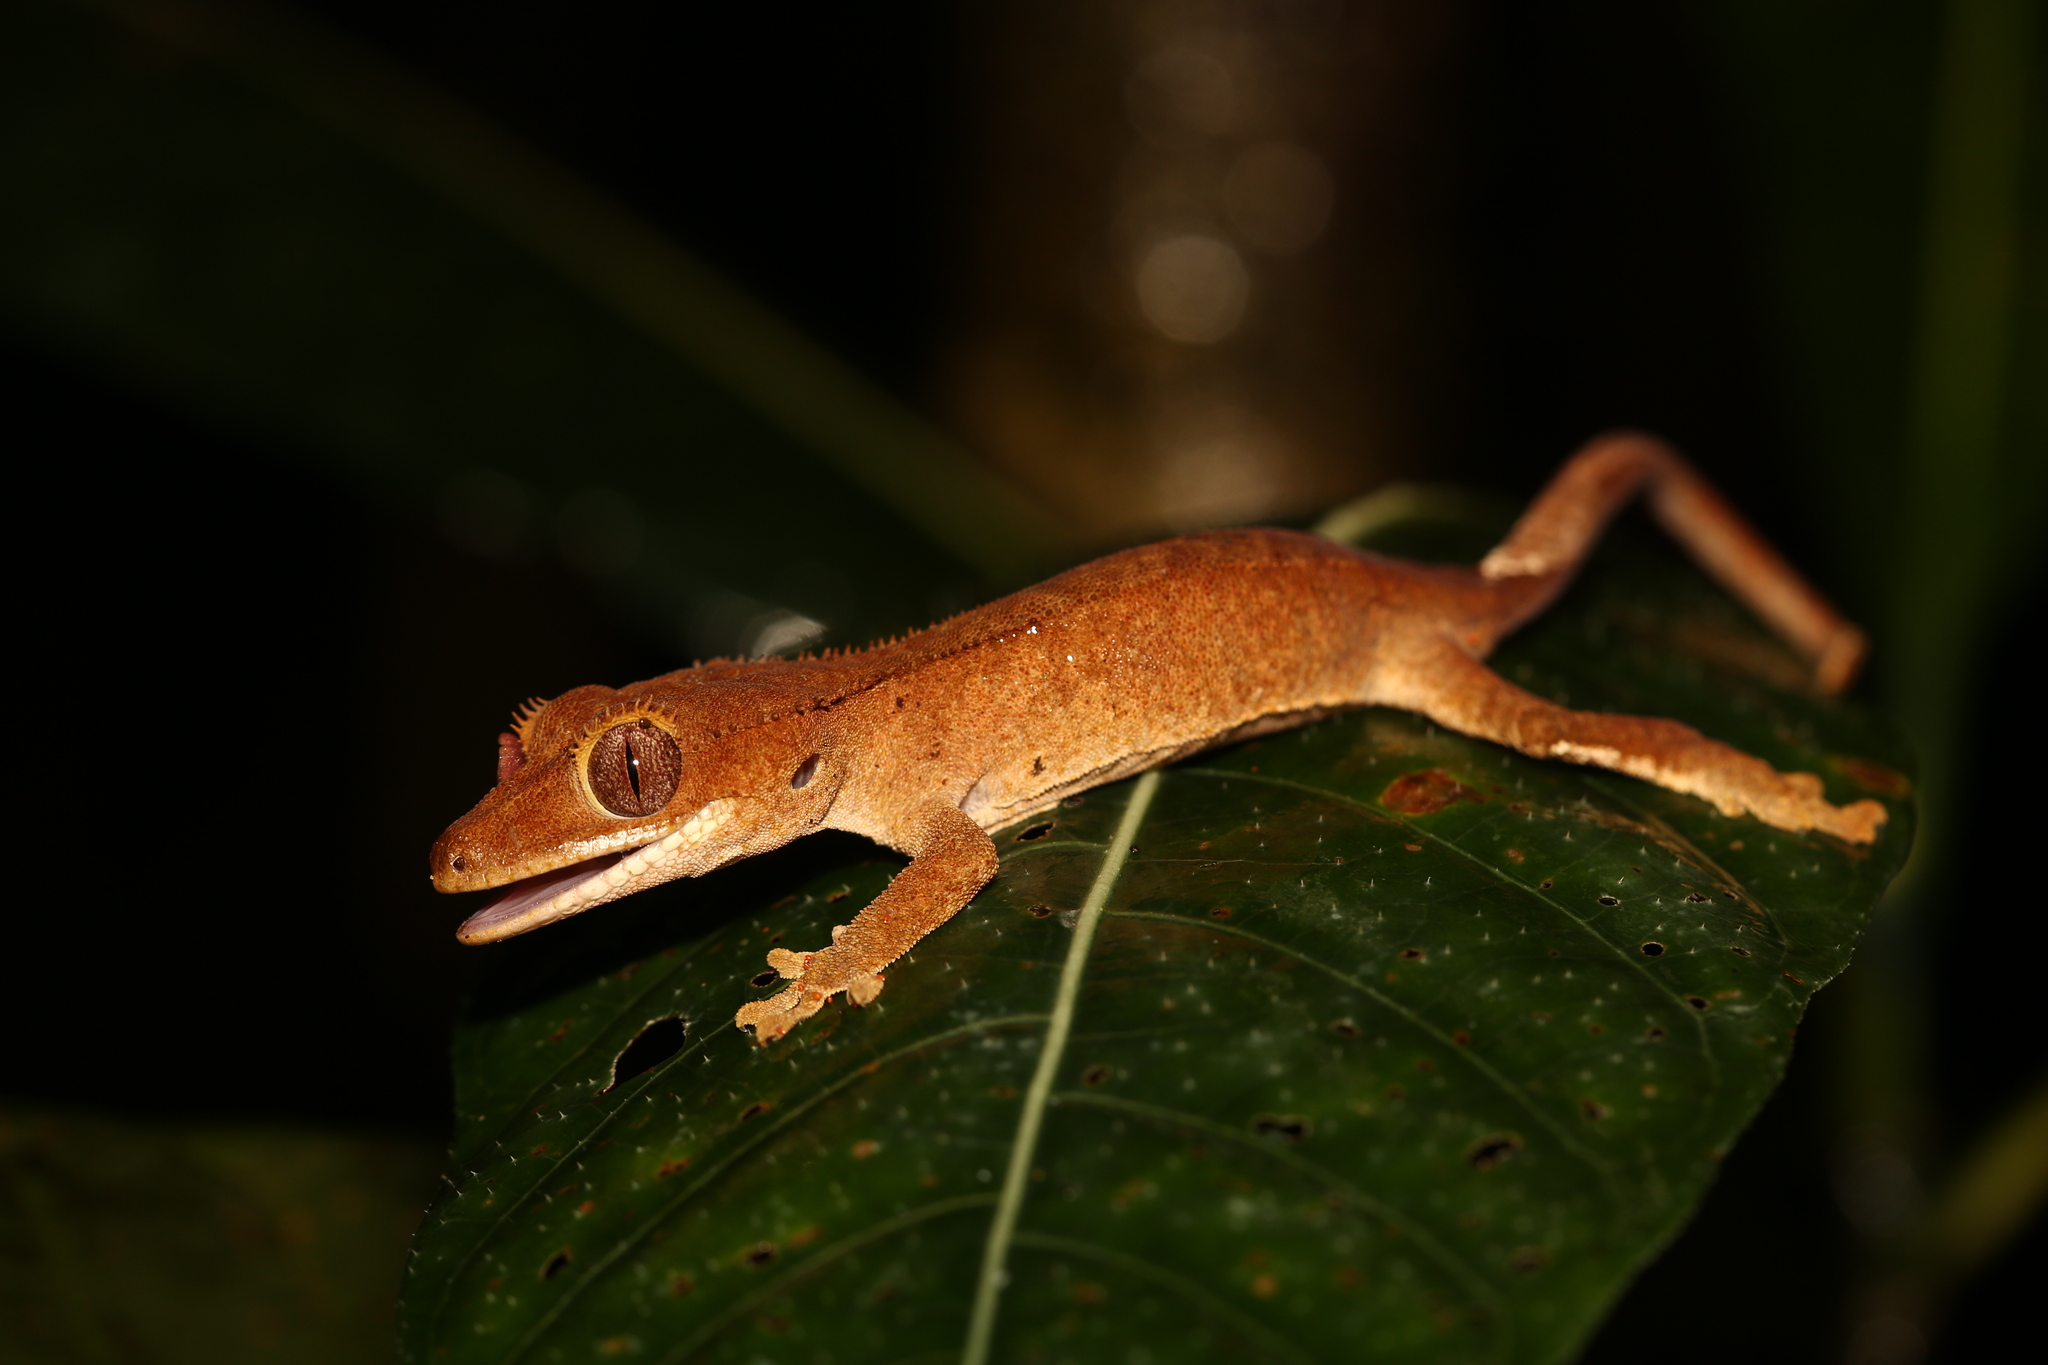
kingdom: Animalia
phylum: Chordata
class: Squamata
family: Diplodactylidae
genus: Correlophus
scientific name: Correlophus ciliatus
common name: Crested gecko
